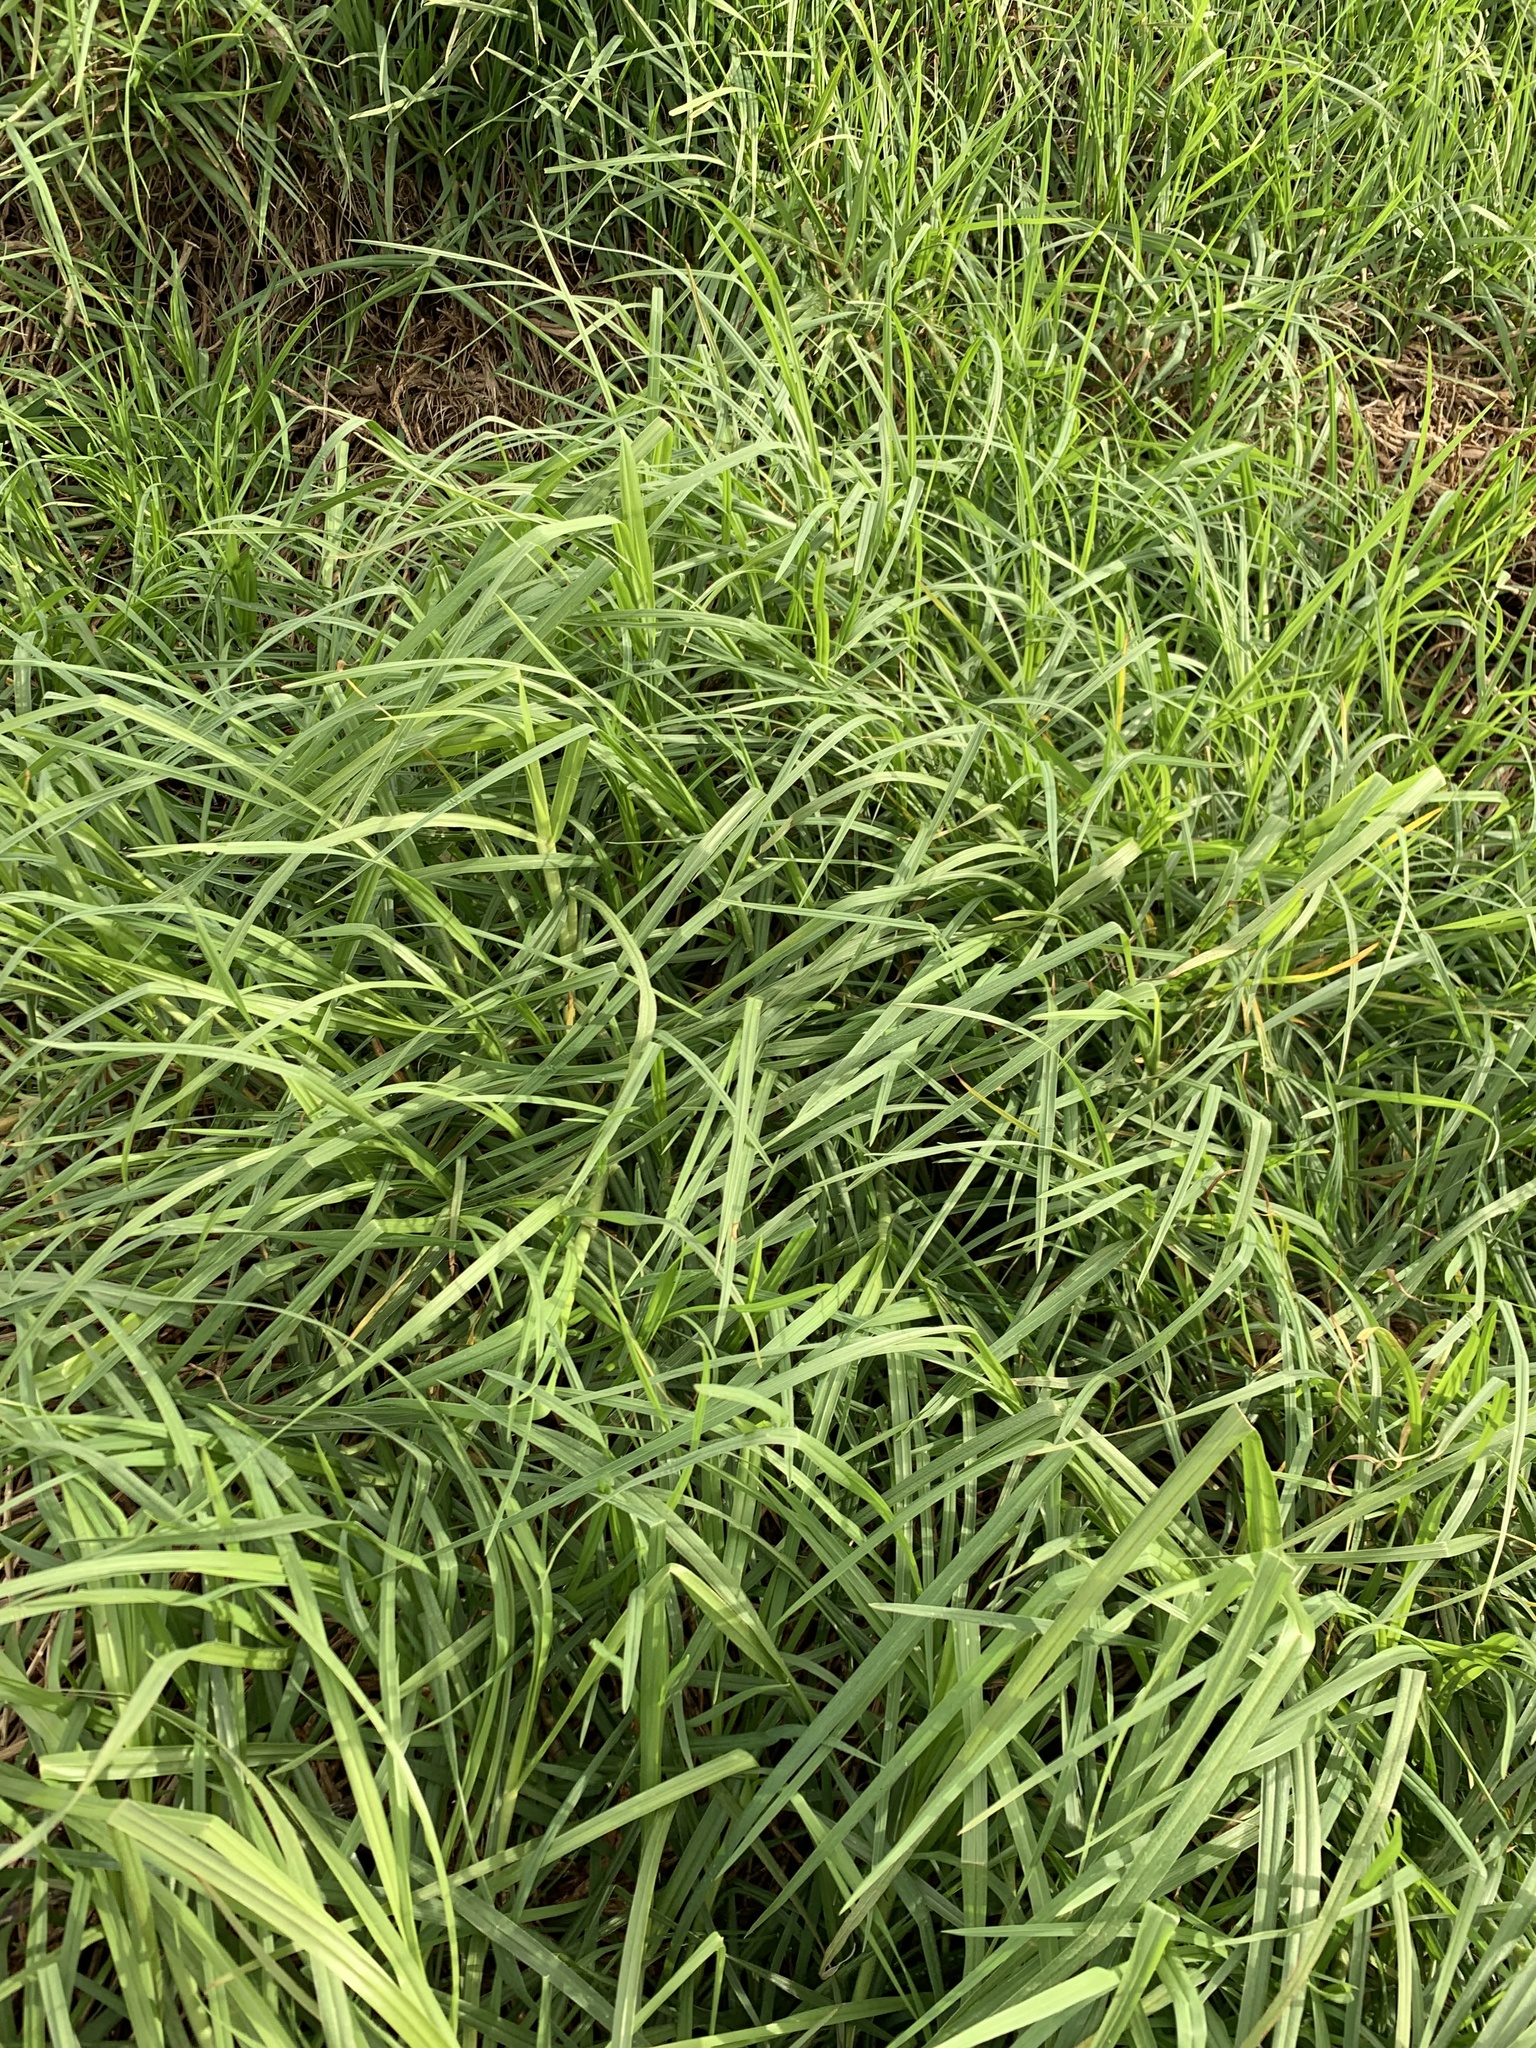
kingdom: Plantae
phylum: Tracheophyta
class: Liliopsida
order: Poales
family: Poaceae
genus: Cenchrus
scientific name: Cenchrus clandestinus
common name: Kikuyugrass
